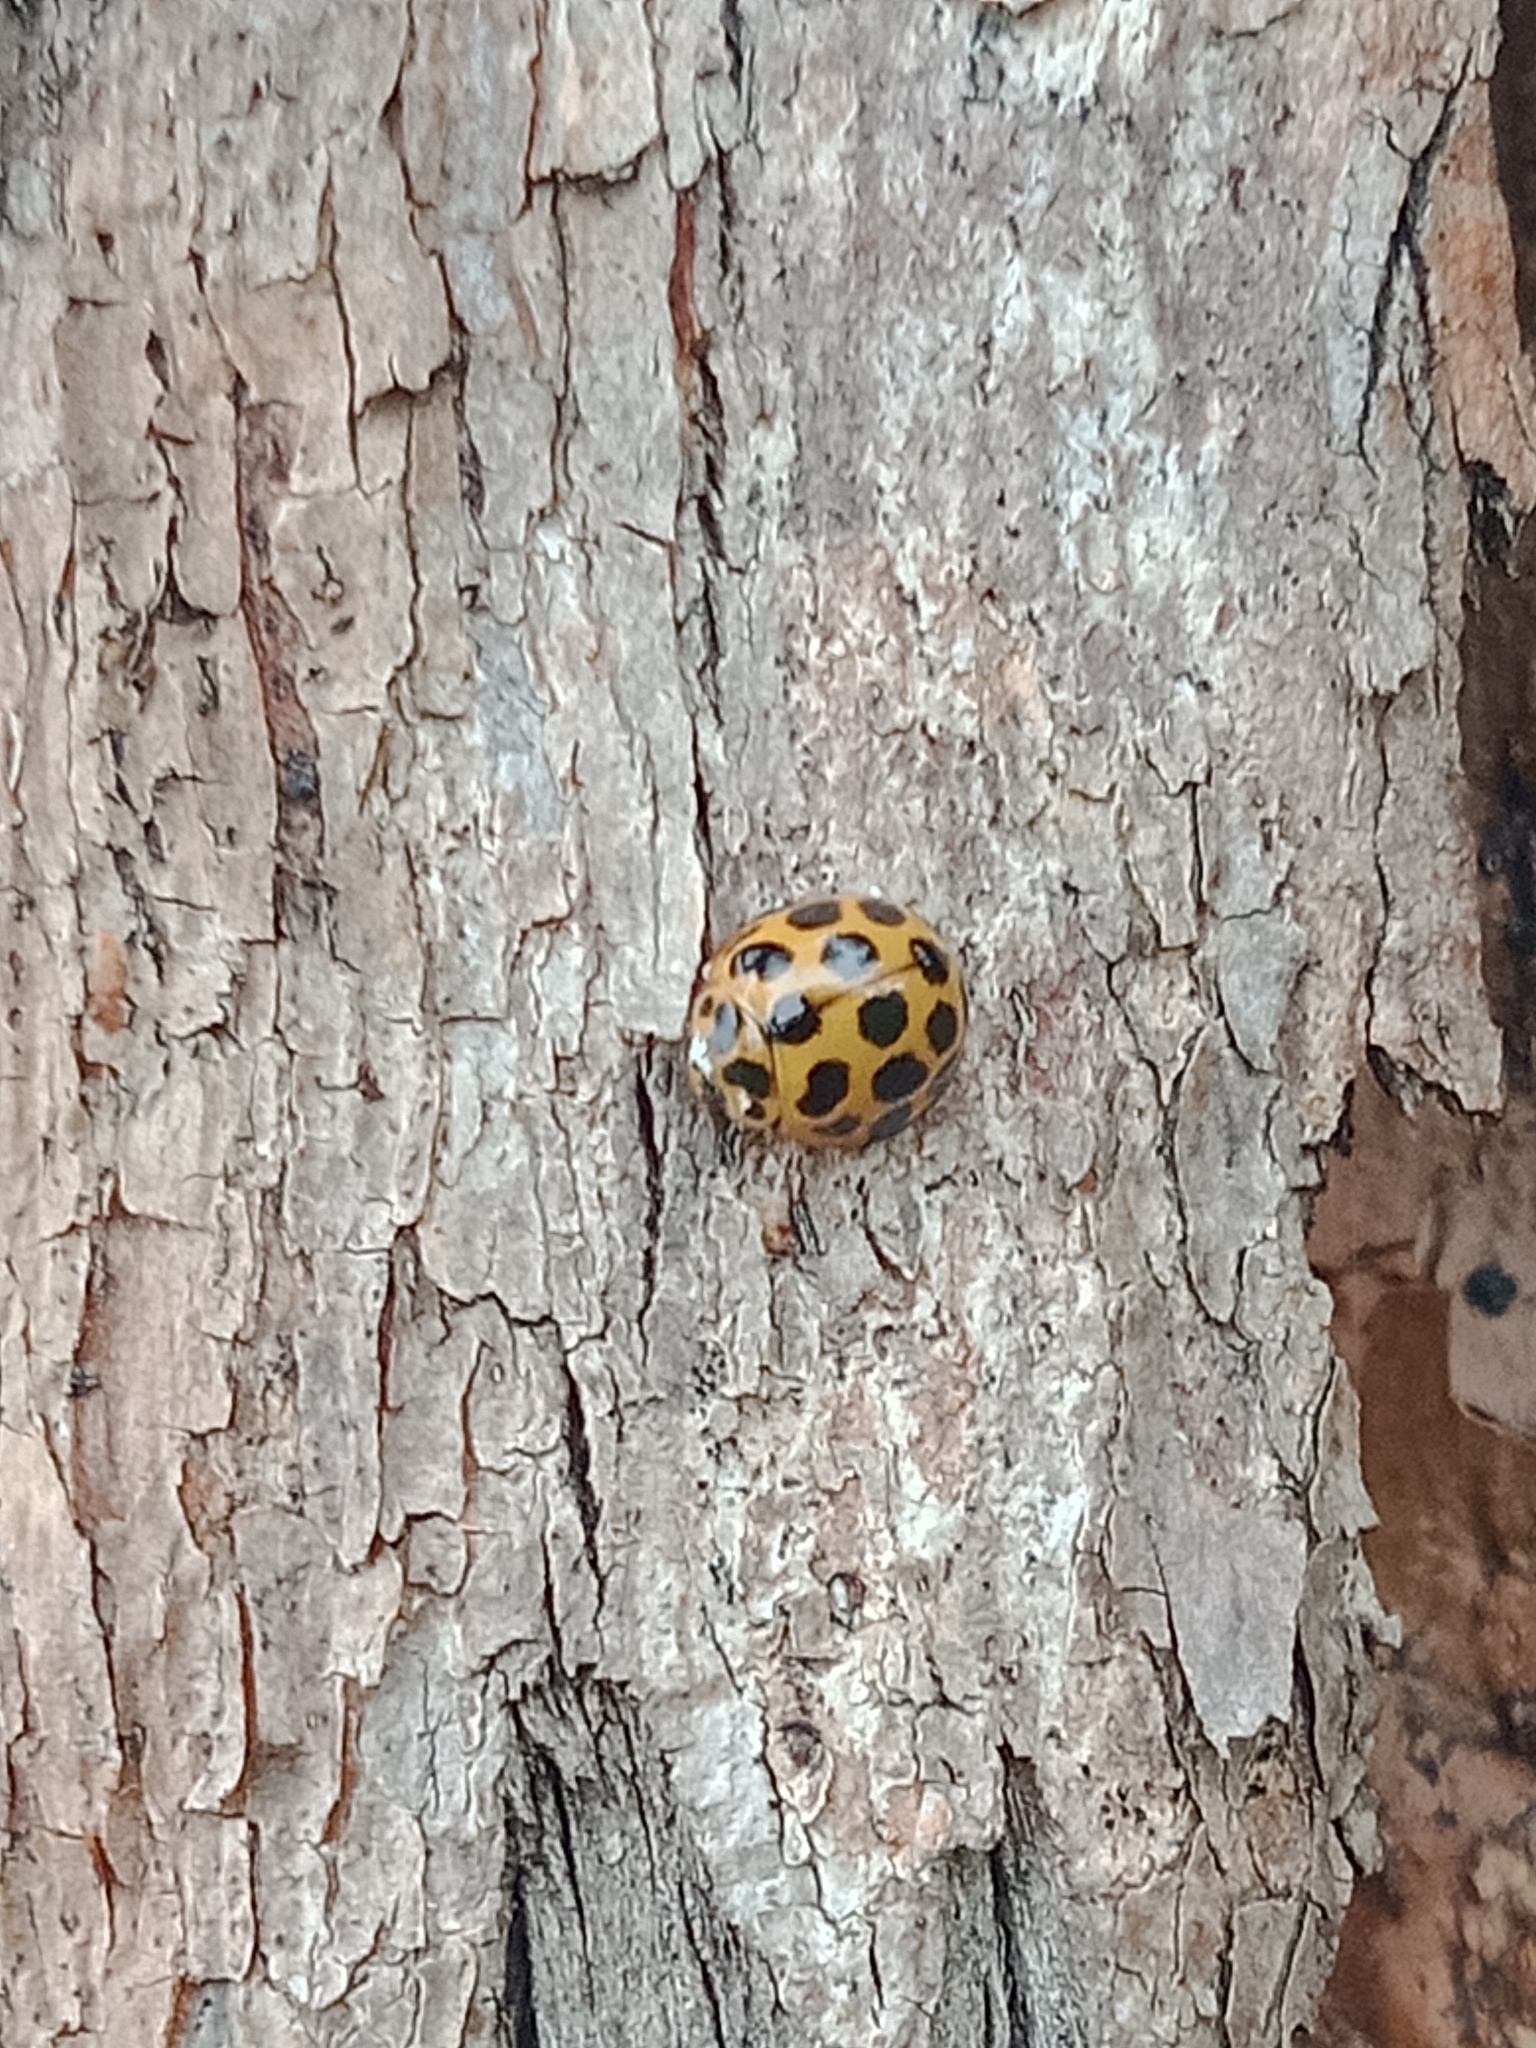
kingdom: Animalia
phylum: Arthropoda
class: Insecta
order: Coleoptera
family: Coccinellidae
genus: Harmonia
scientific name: Harmonia conformis
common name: Common spotted ladybird beetle
